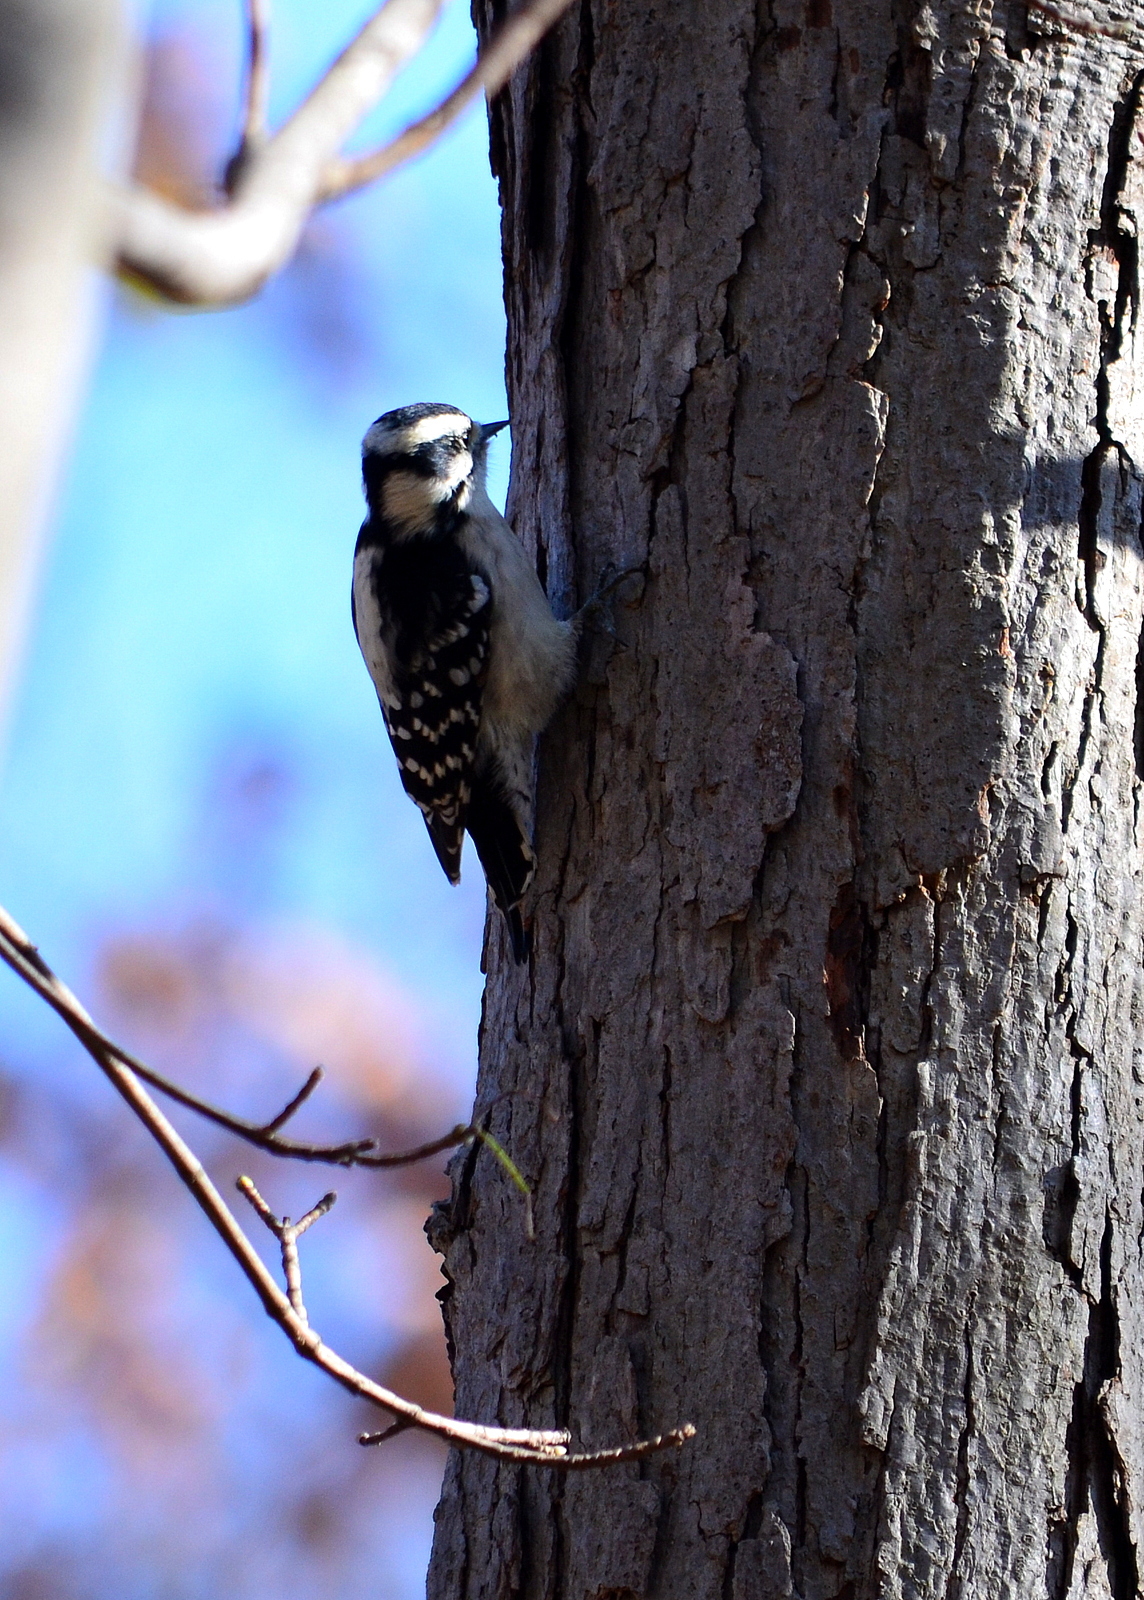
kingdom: Animalia
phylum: Chordata
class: Aves
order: Piciformes
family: Picidae
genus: Dryobates
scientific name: Dryobates pubescens
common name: Downy woodpecker
